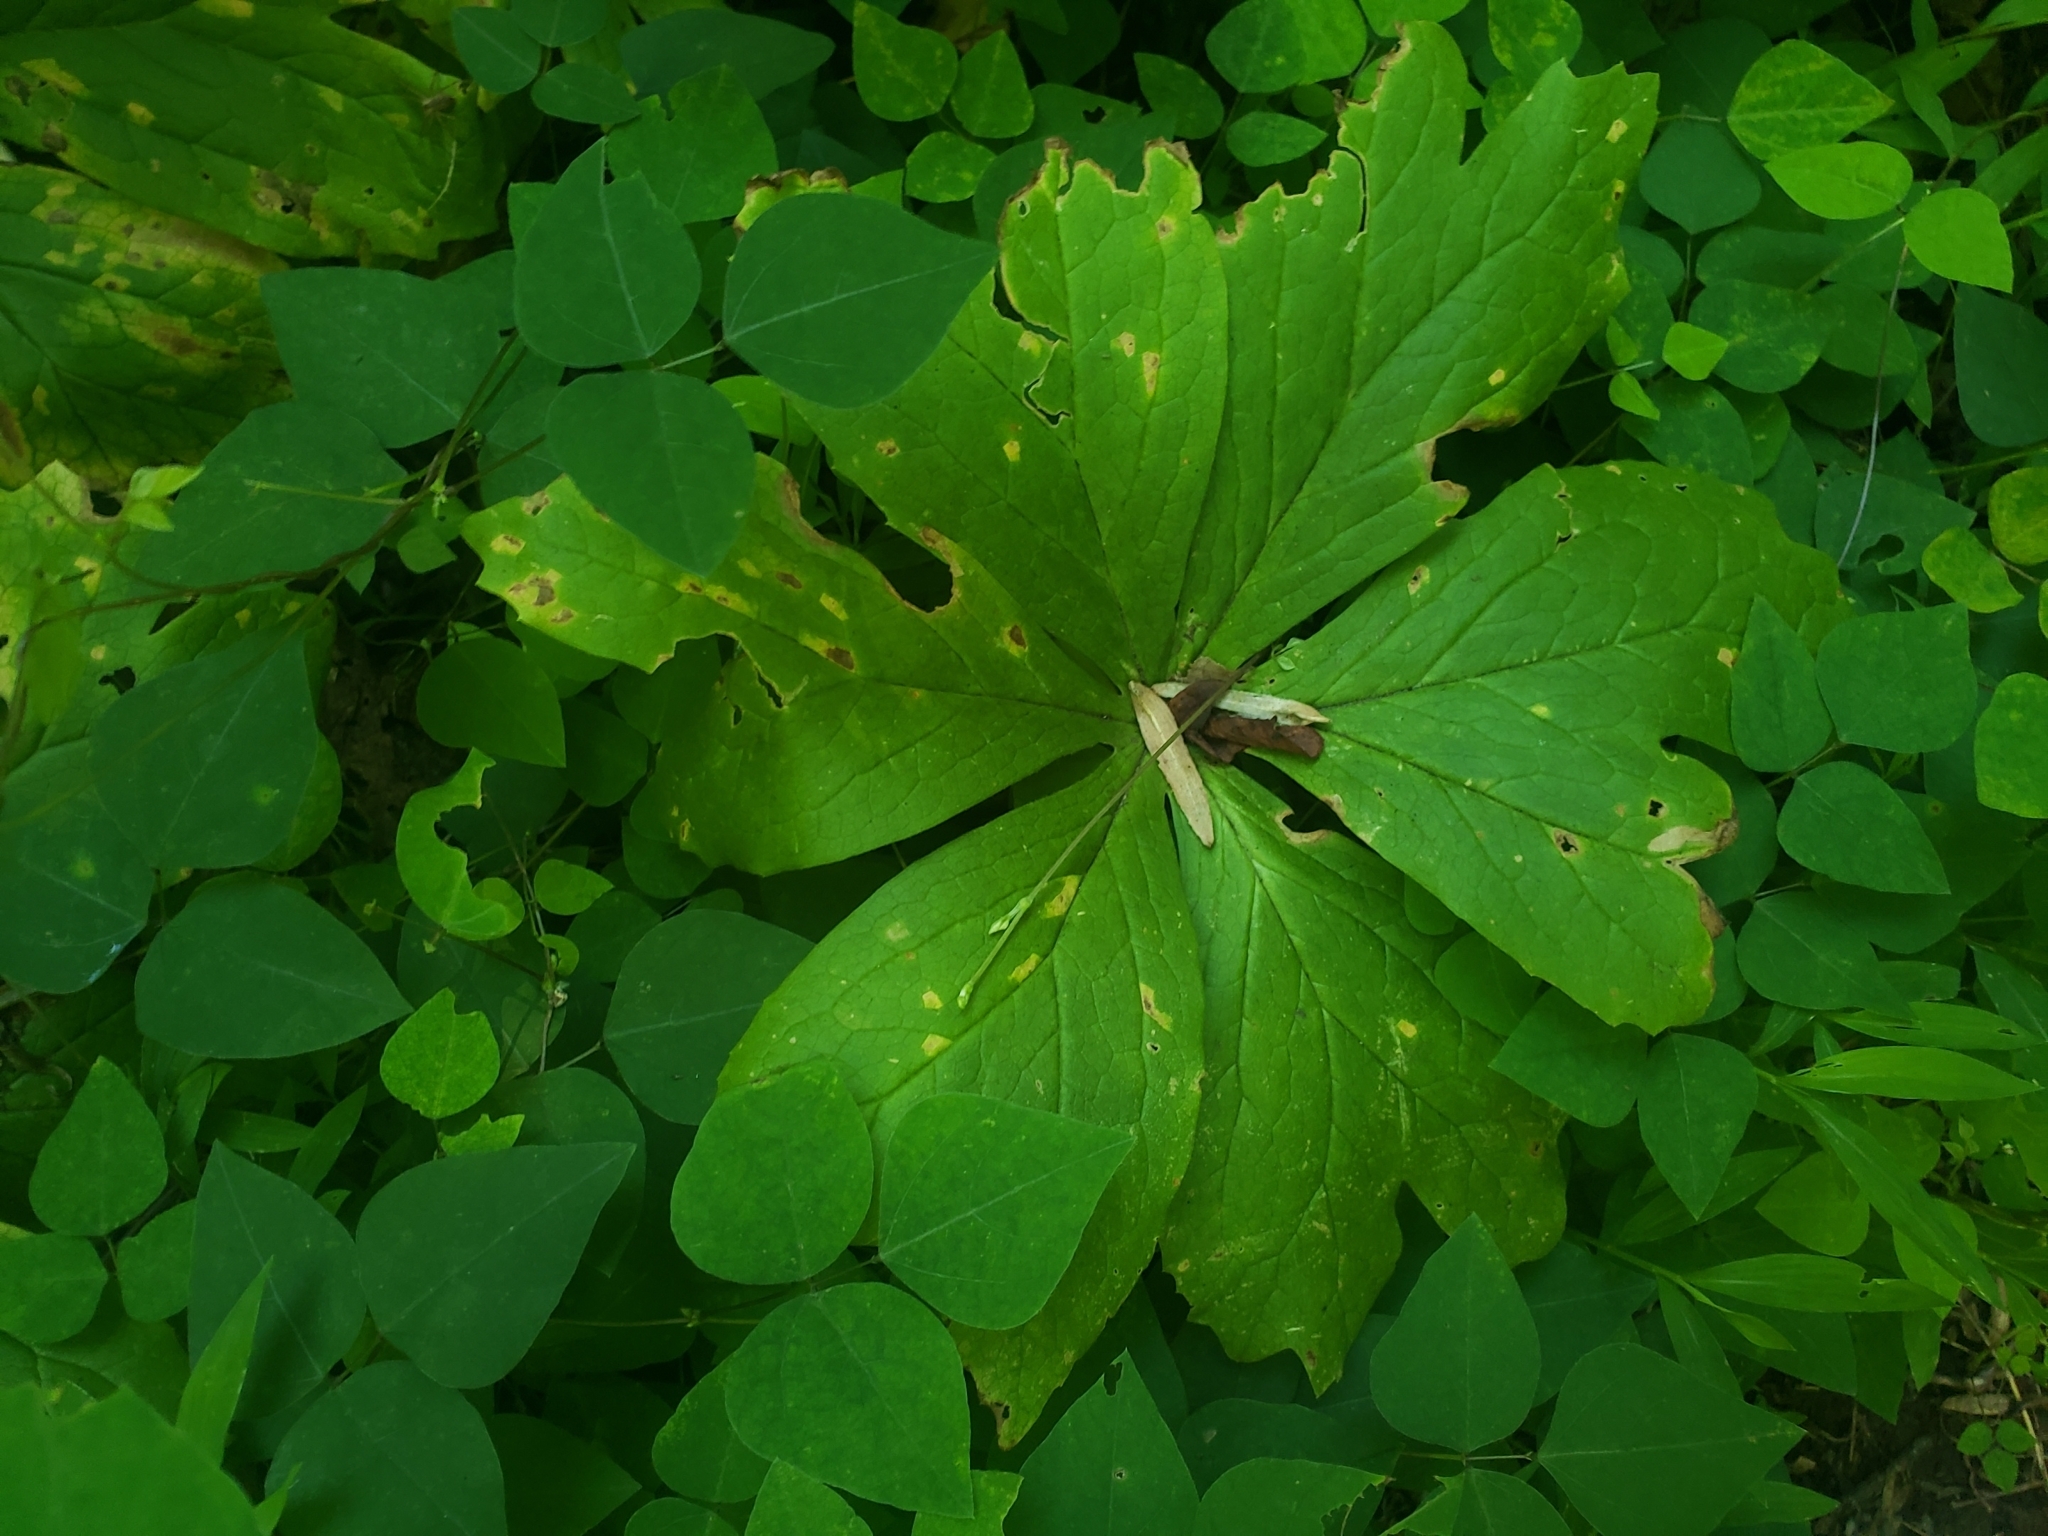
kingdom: Fungi
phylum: Basidiomycota
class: Pucciniomycetes
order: Pucciniales
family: Pucciniaceae
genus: Puccinia
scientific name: Puccinia podophylli
